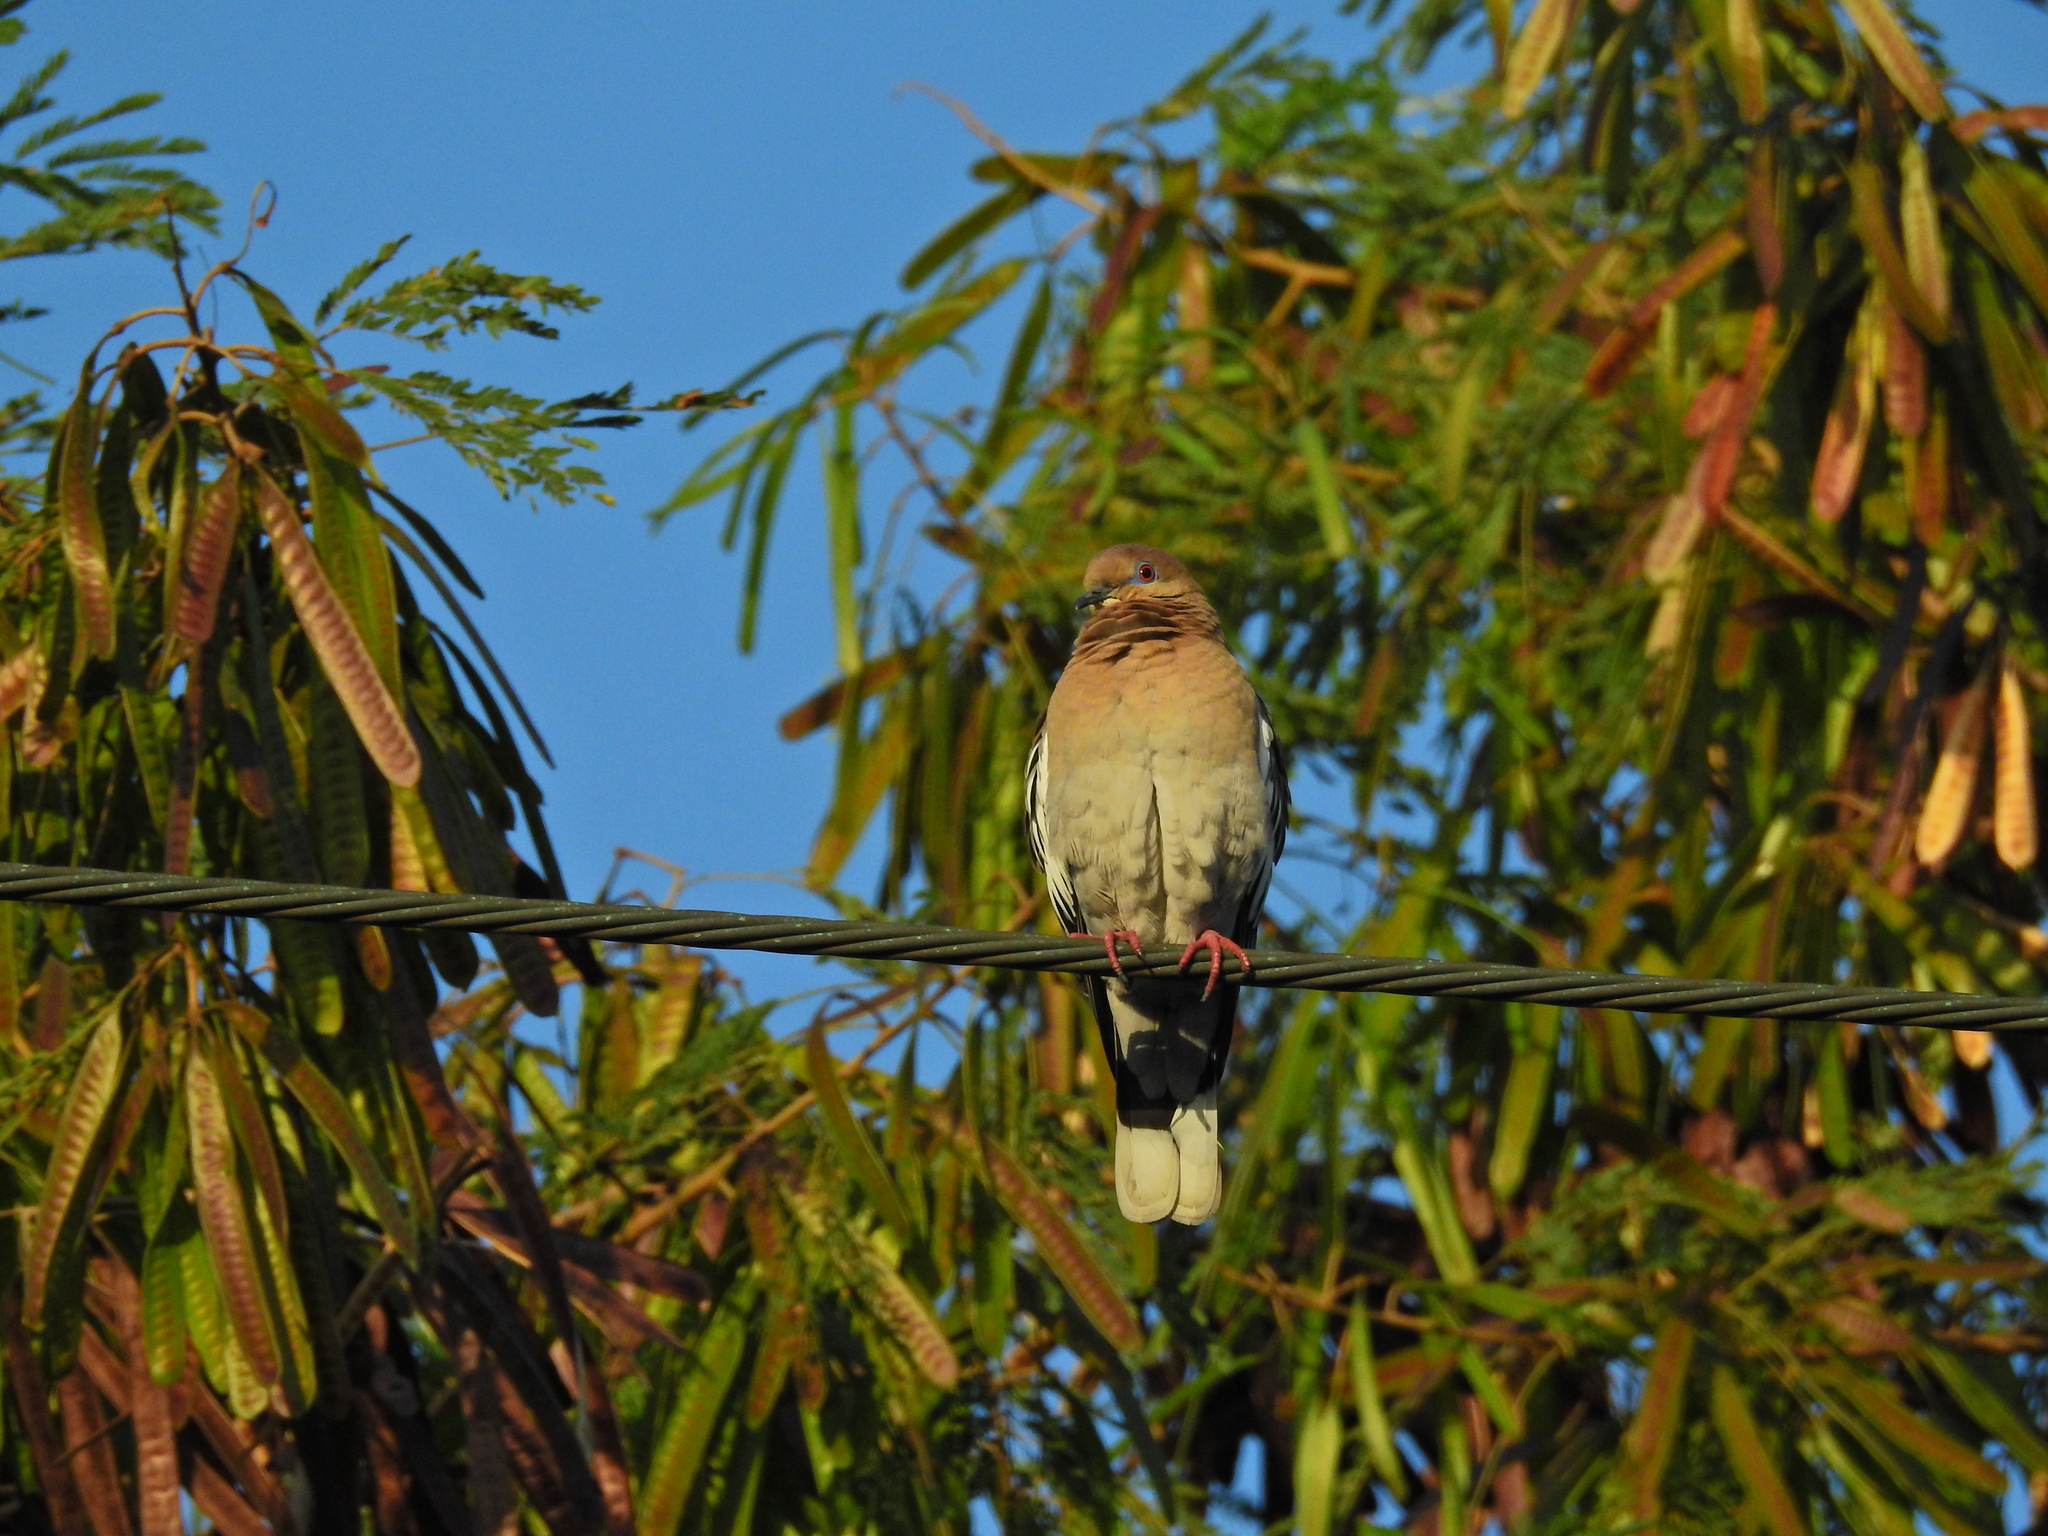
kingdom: Animalia
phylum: Chordata
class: Aves
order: Columbiformes
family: Columbidae
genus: Zenaida
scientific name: Zenaida asiatica
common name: White-winged dove
